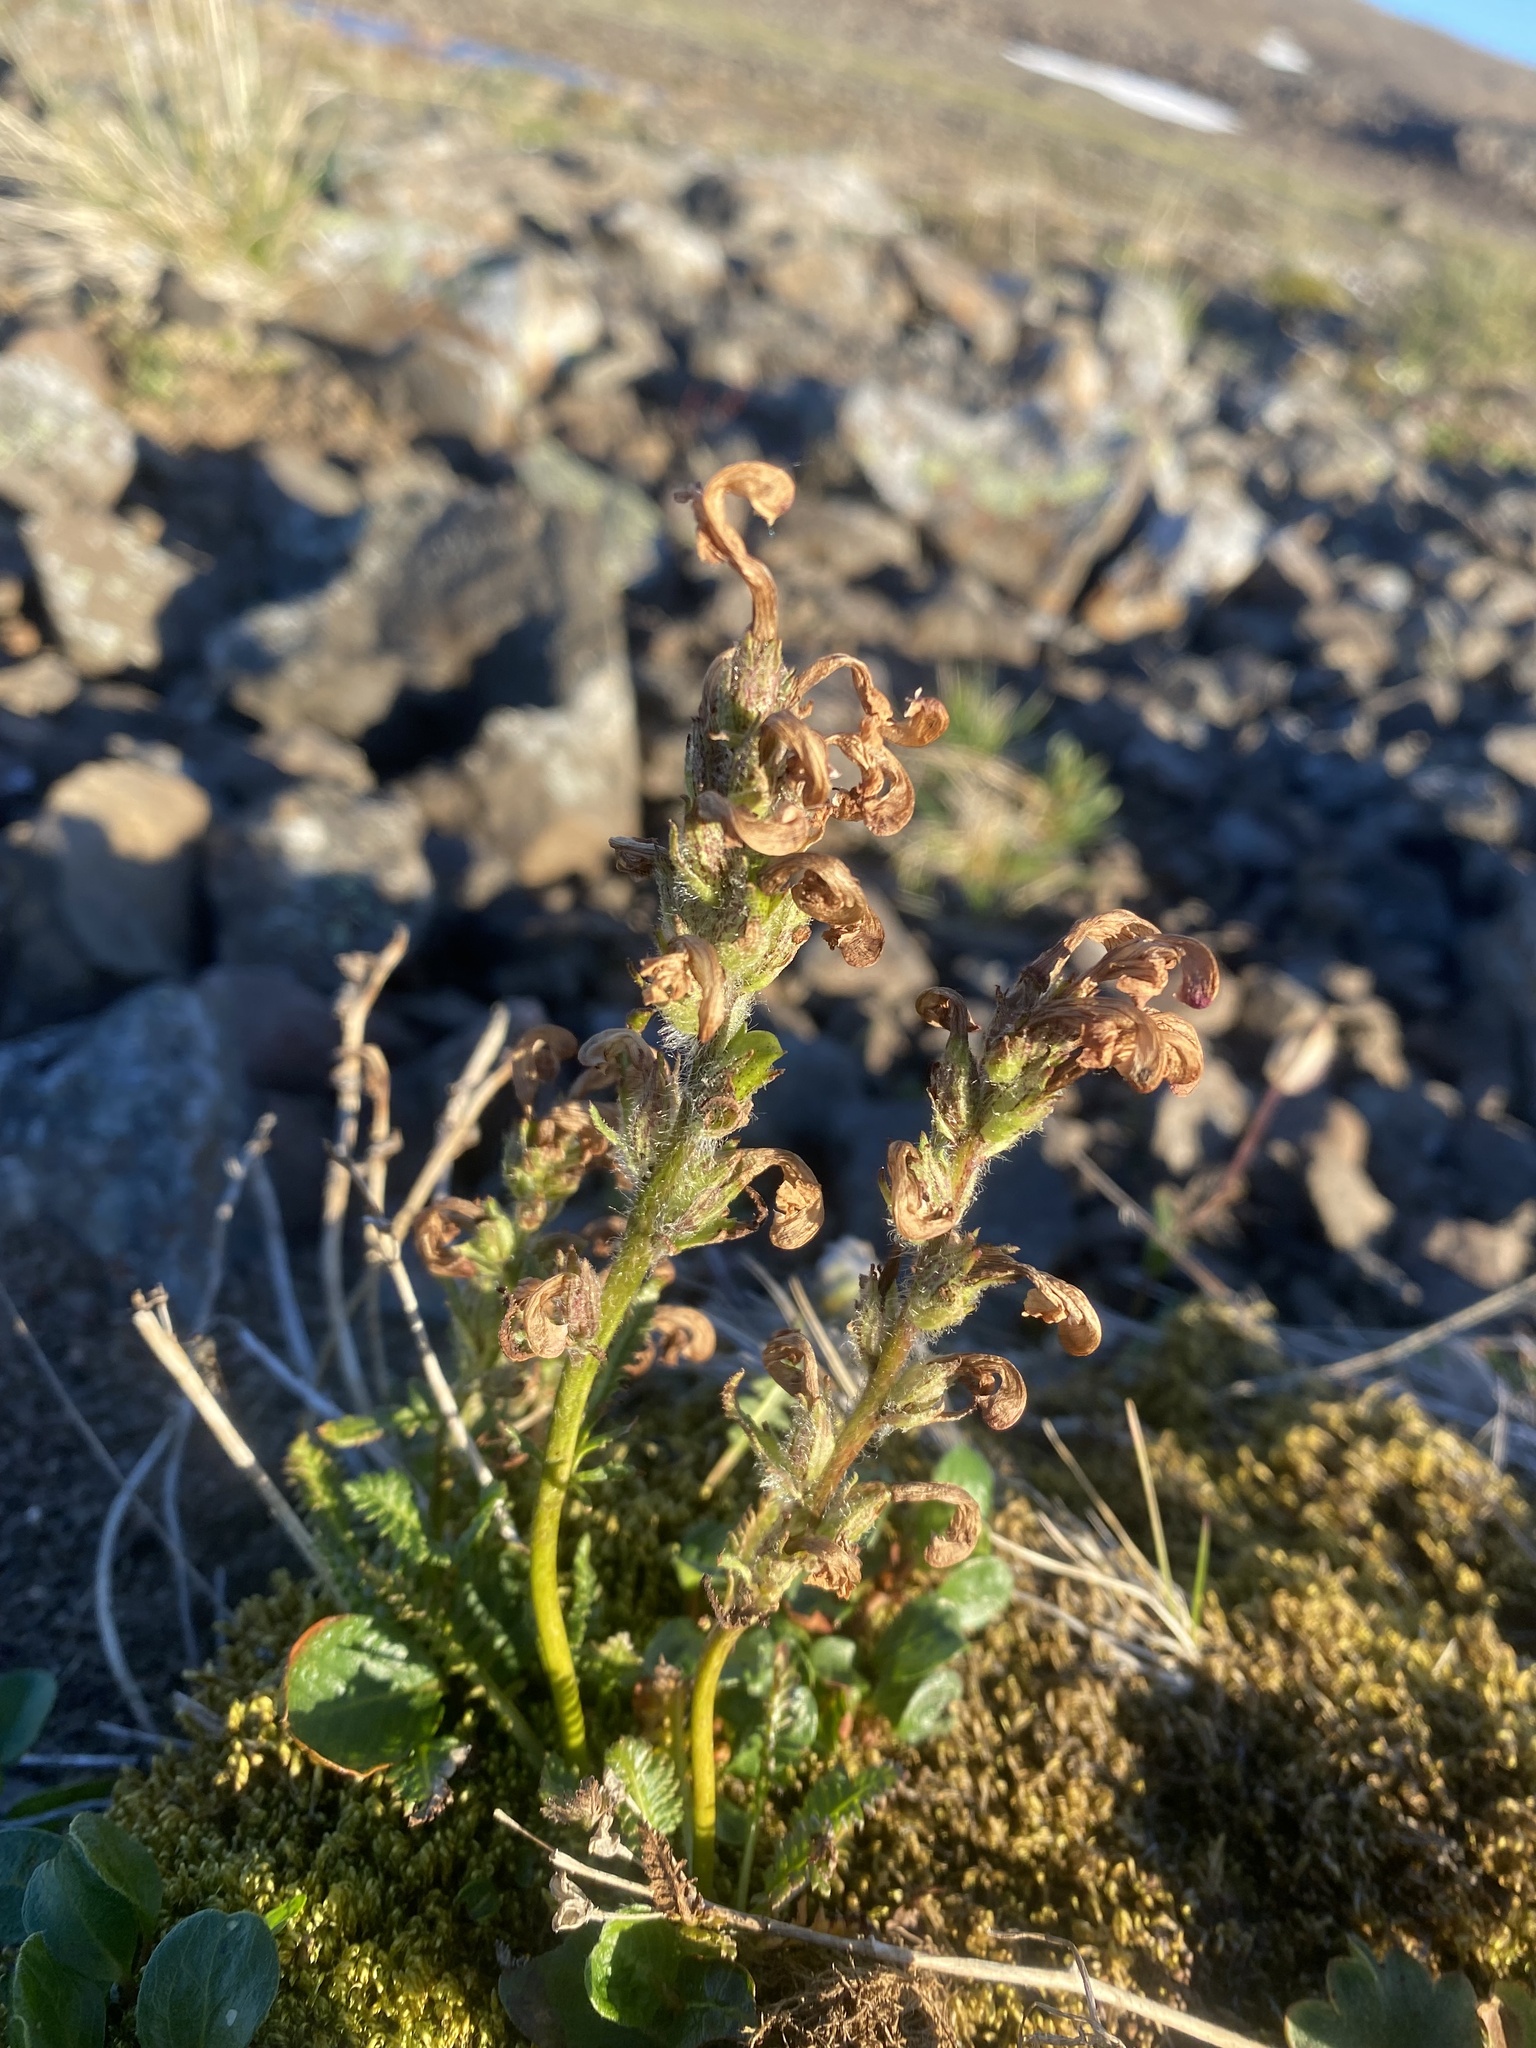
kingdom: Plantae
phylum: Tracheophyta
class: Magnoliopsida
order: Lamiales
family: Orobanchaceae
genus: Pedicularis
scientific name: Pedicularis novaiae-zemliae
